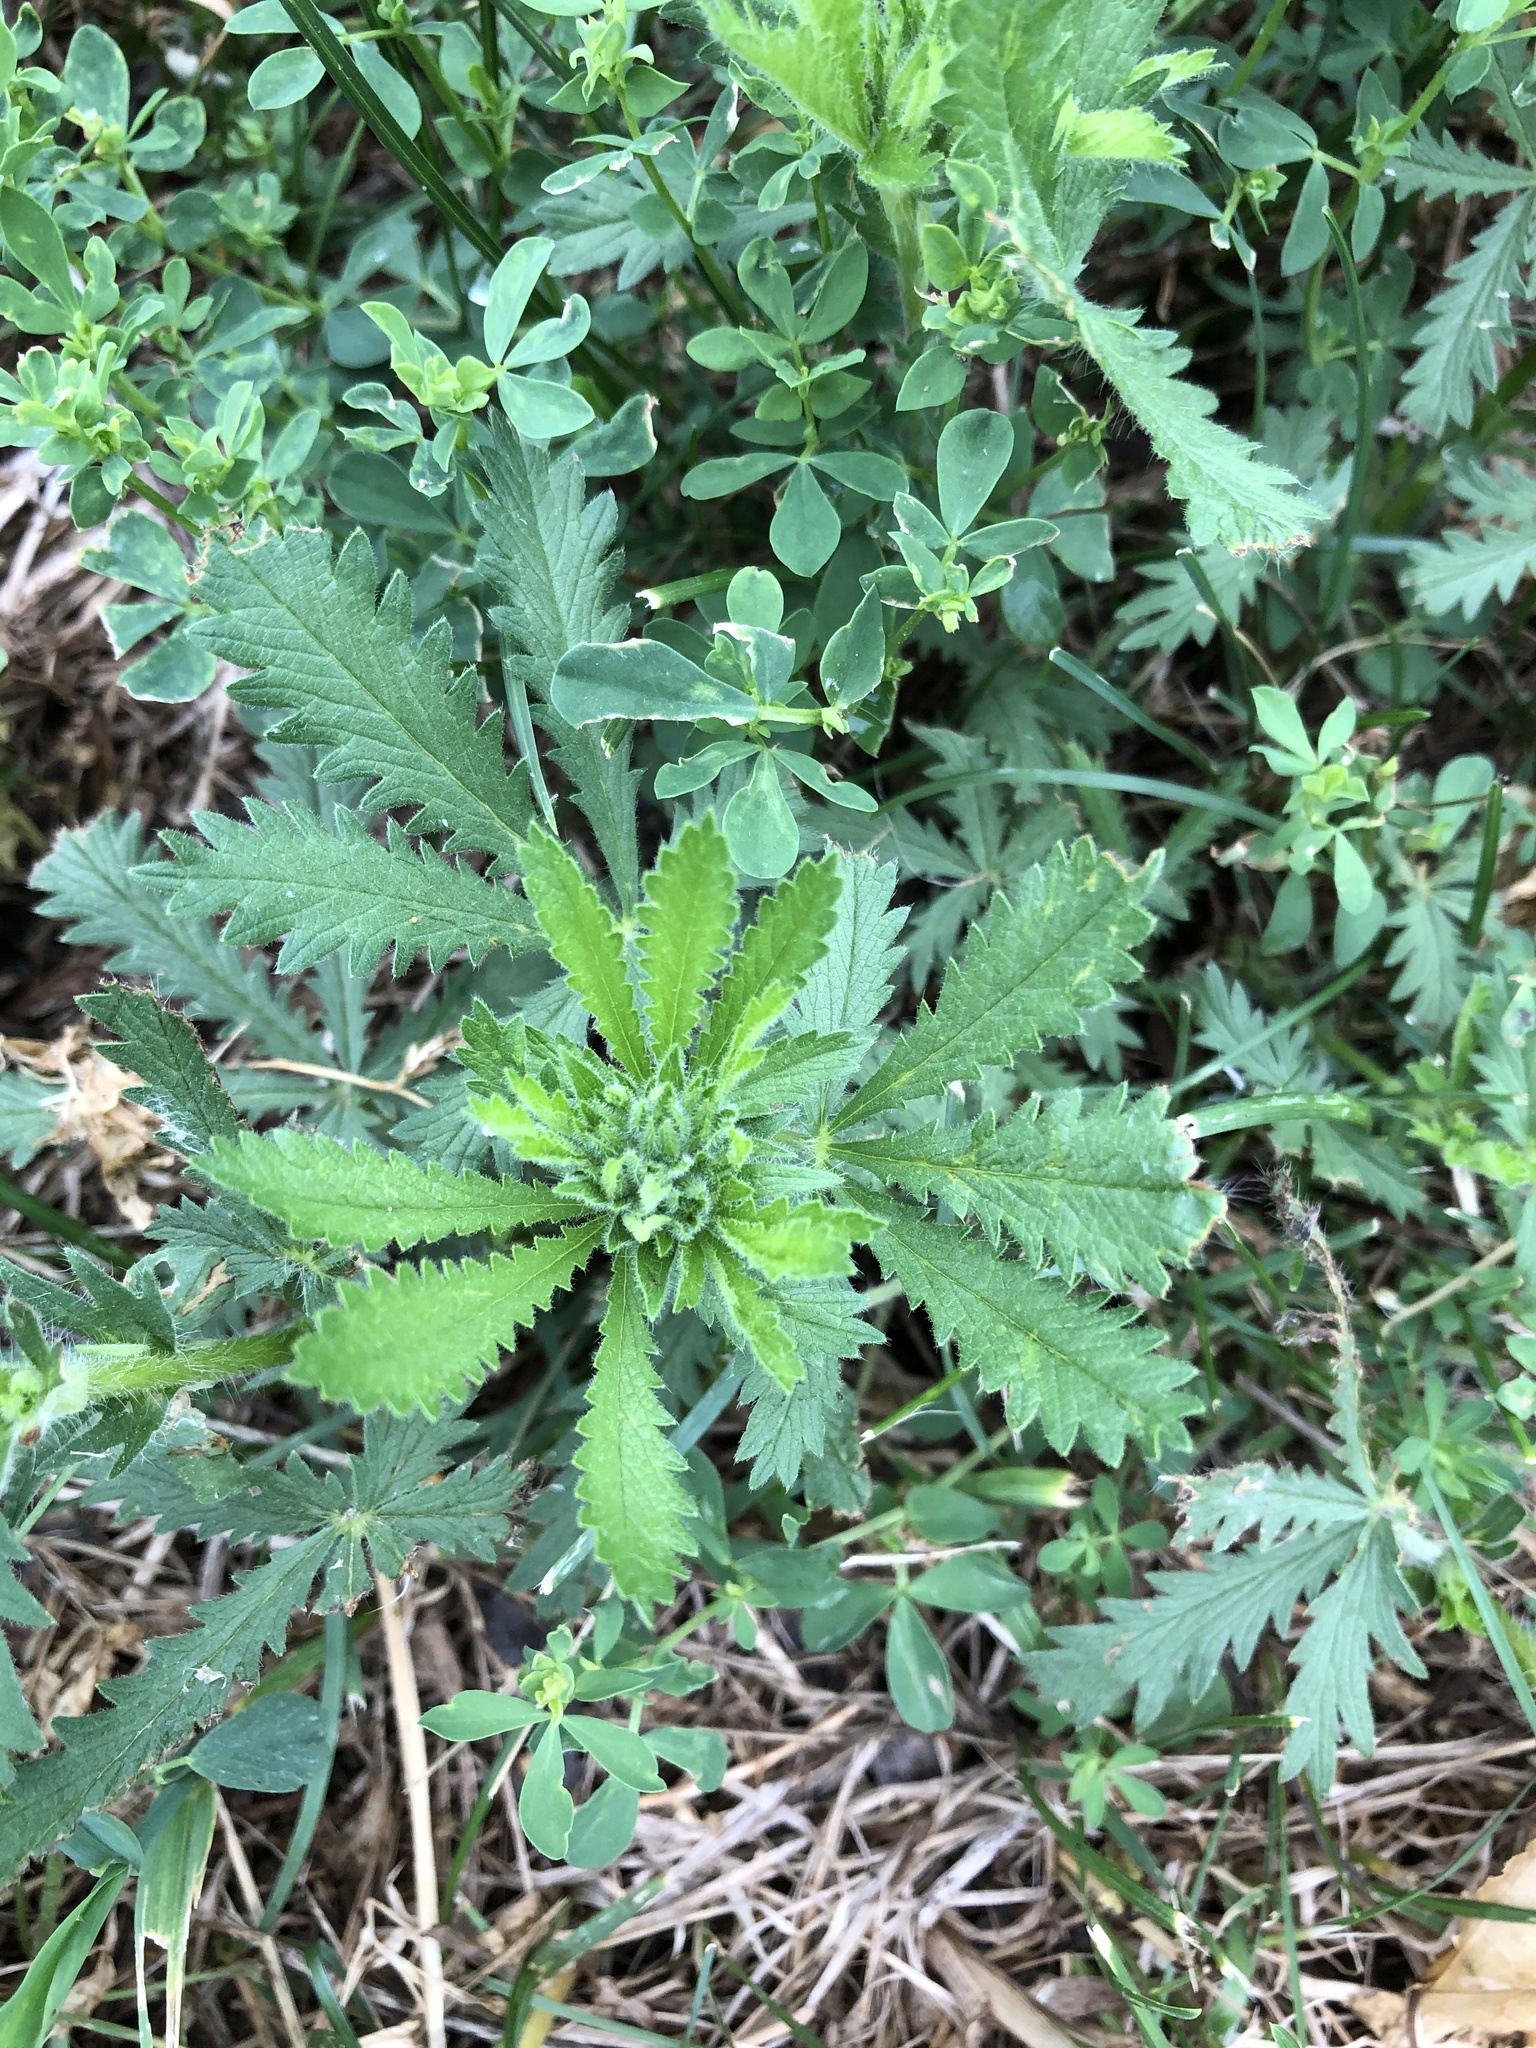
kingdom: Plantae
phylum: Tracheophyta
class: Magnoliopsida
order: Rosales
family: Rosaceae
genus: Potentilla
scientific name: Potentilla recta
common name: Sulphur cinquefoil
